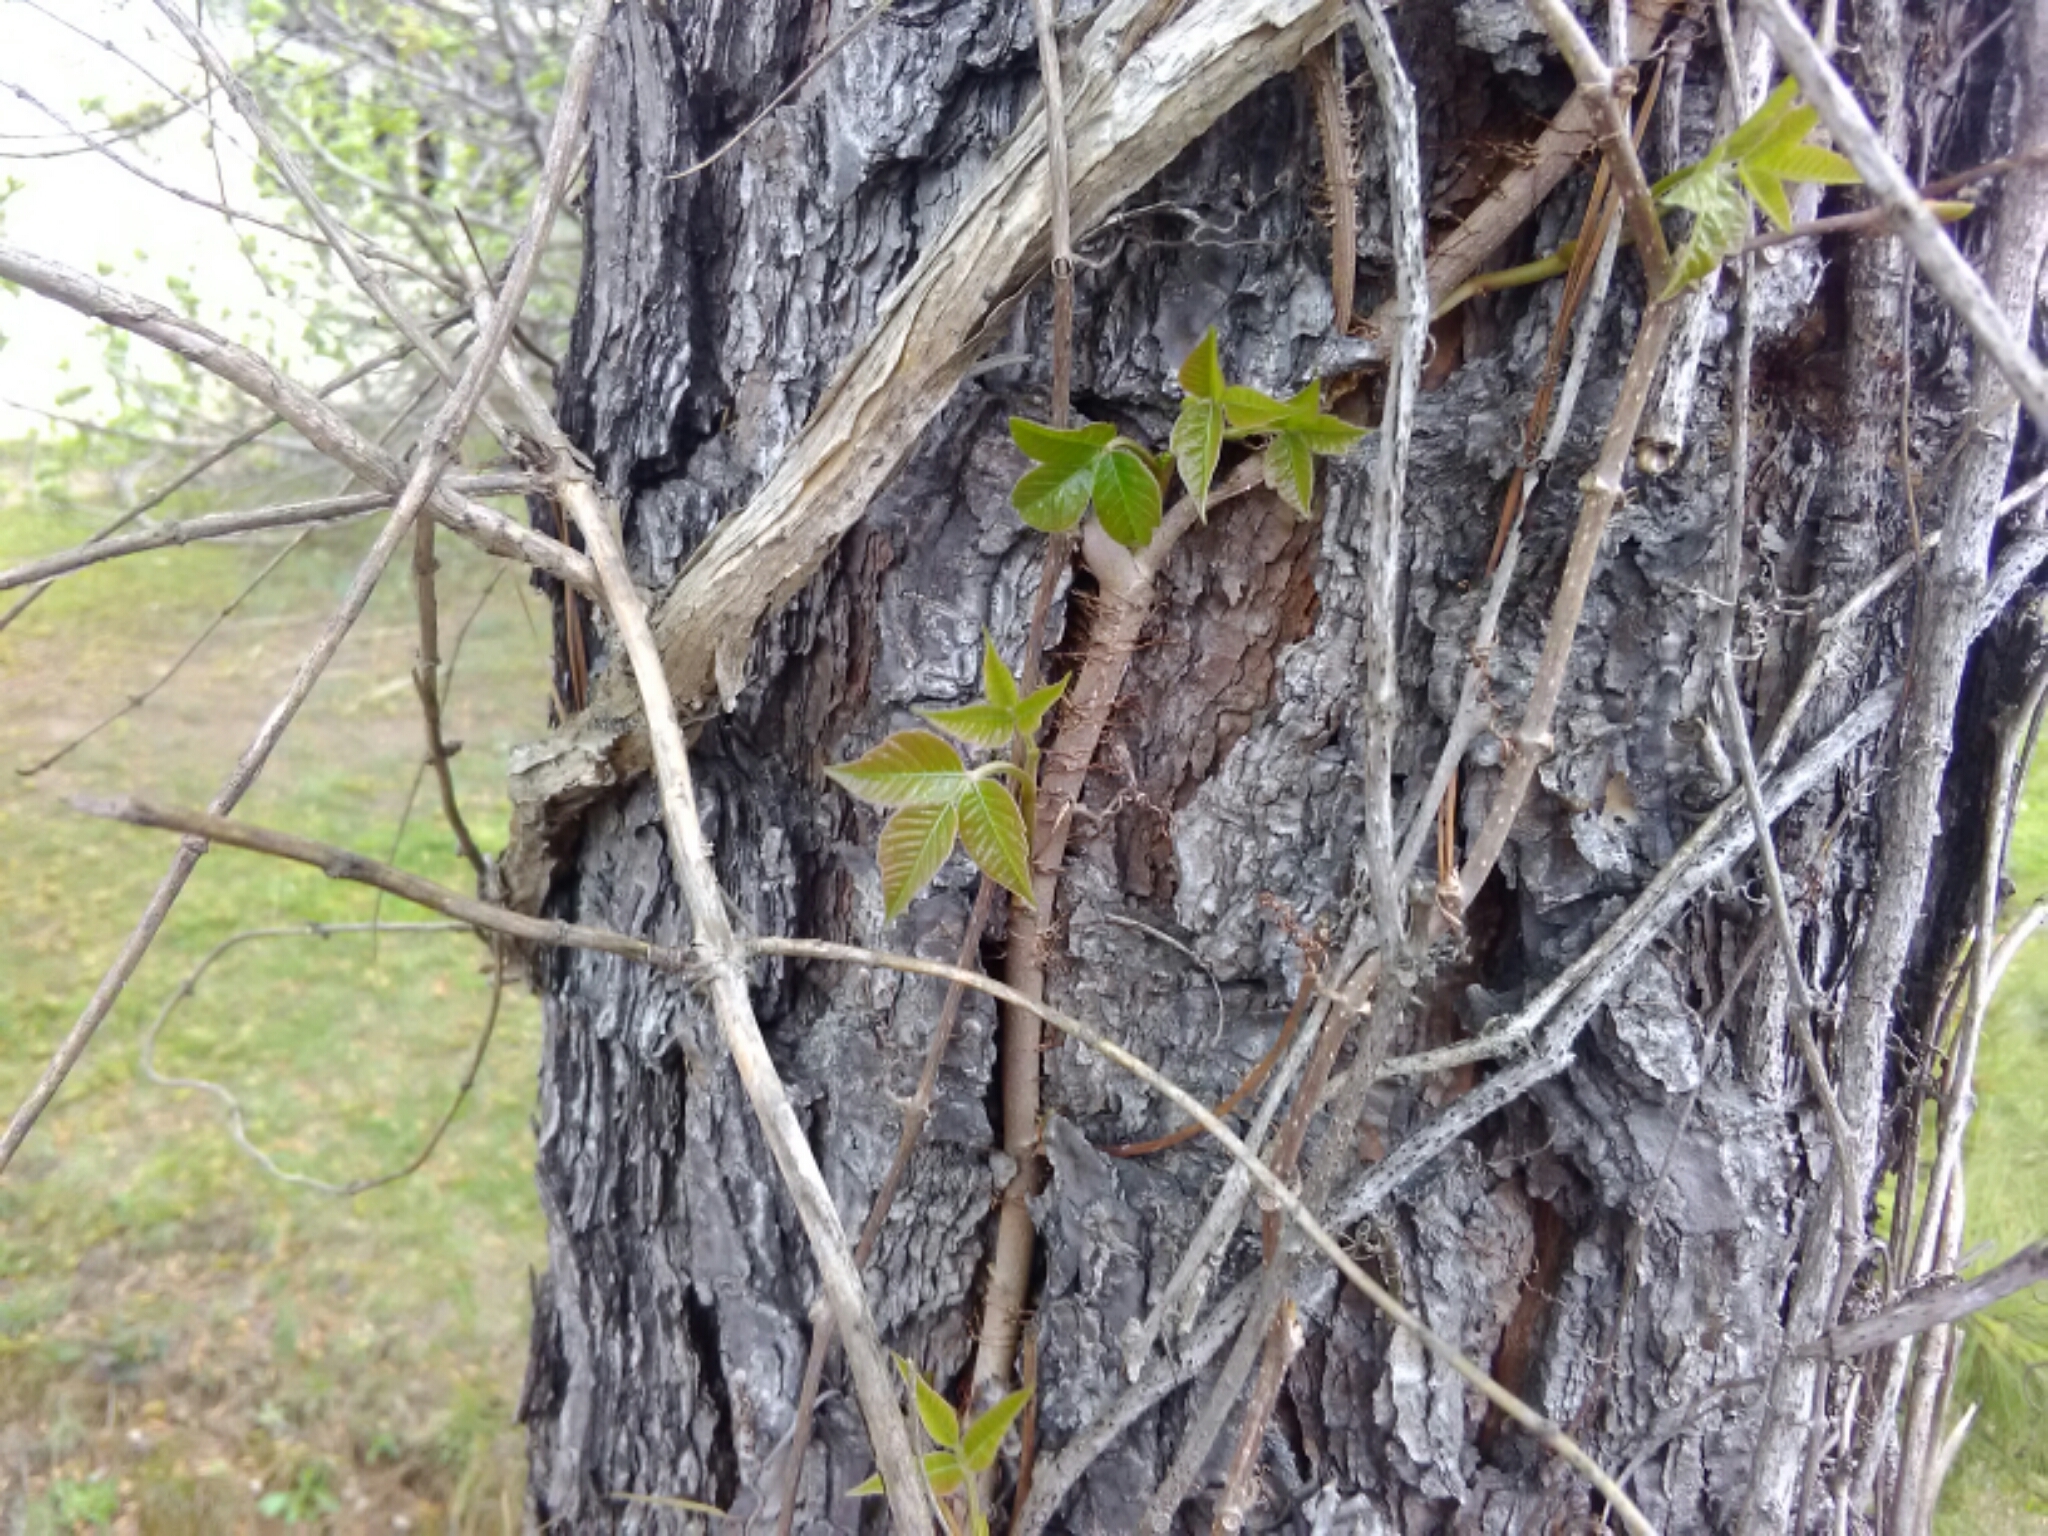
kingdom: Plantae
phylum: Tracheophyta
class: Magnoliopsida
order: Sapindales
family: Anacardiaceae
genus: Toxicodendron
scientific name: Toxicodendron radicans
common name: Poison ivy
